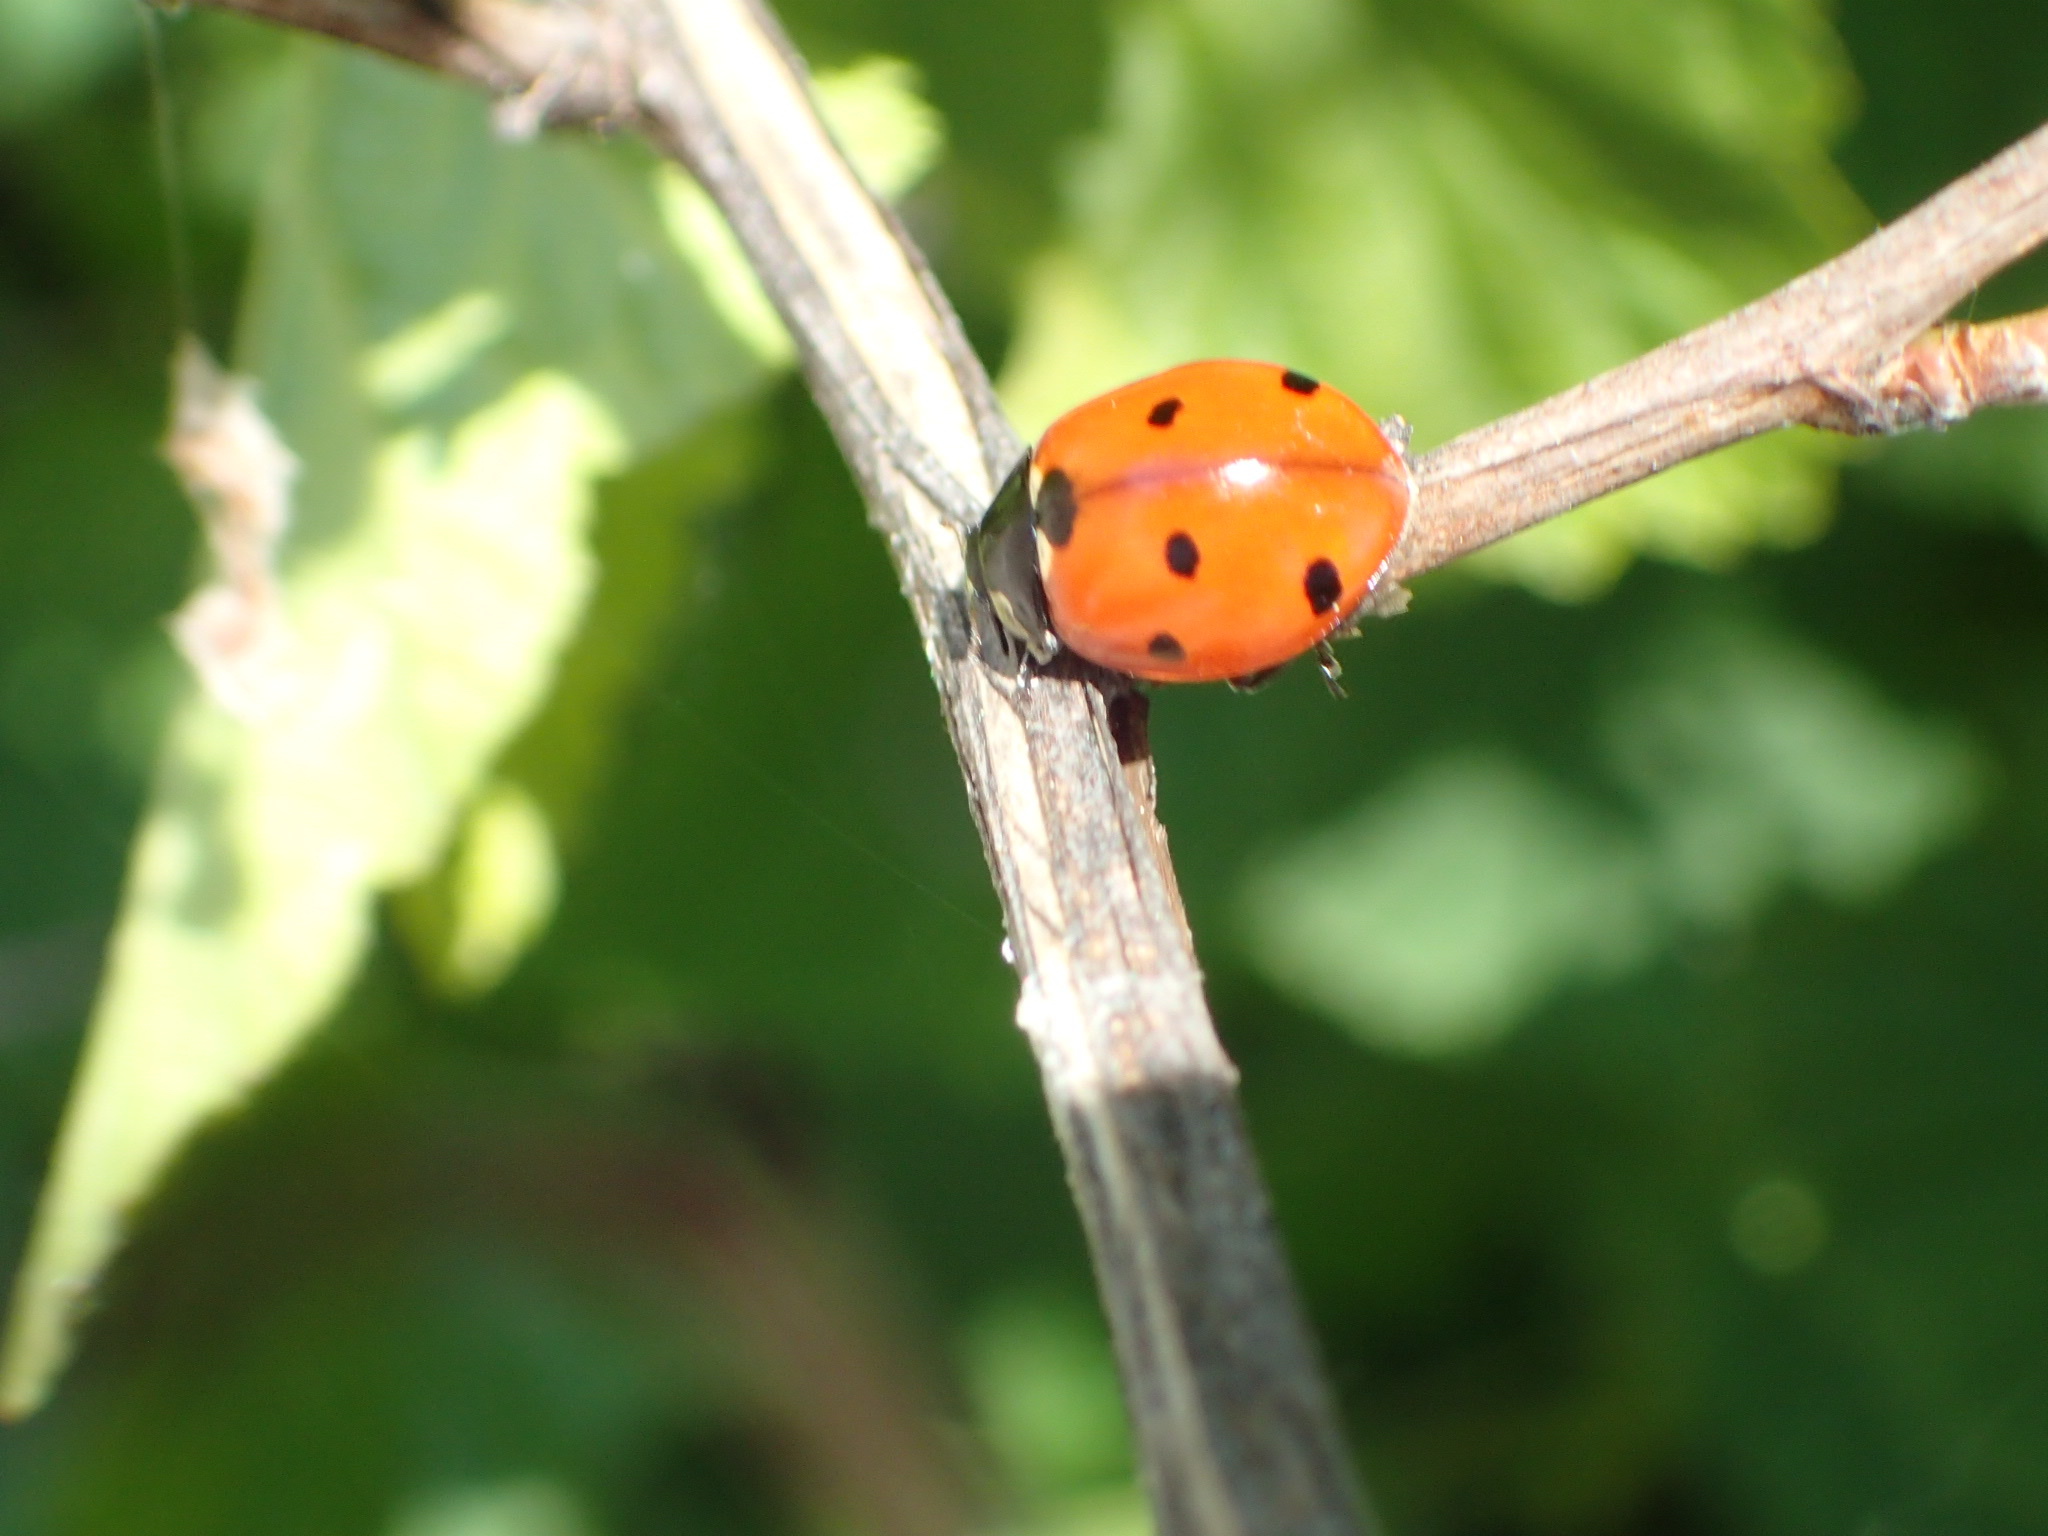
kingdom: Animalia
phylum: Arthropoda
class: Insecta
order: Coleoptera
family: Coccinellidae
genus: Coccinella
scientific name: Coccinella septempunctata
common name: Sevenspotted lady beetle
